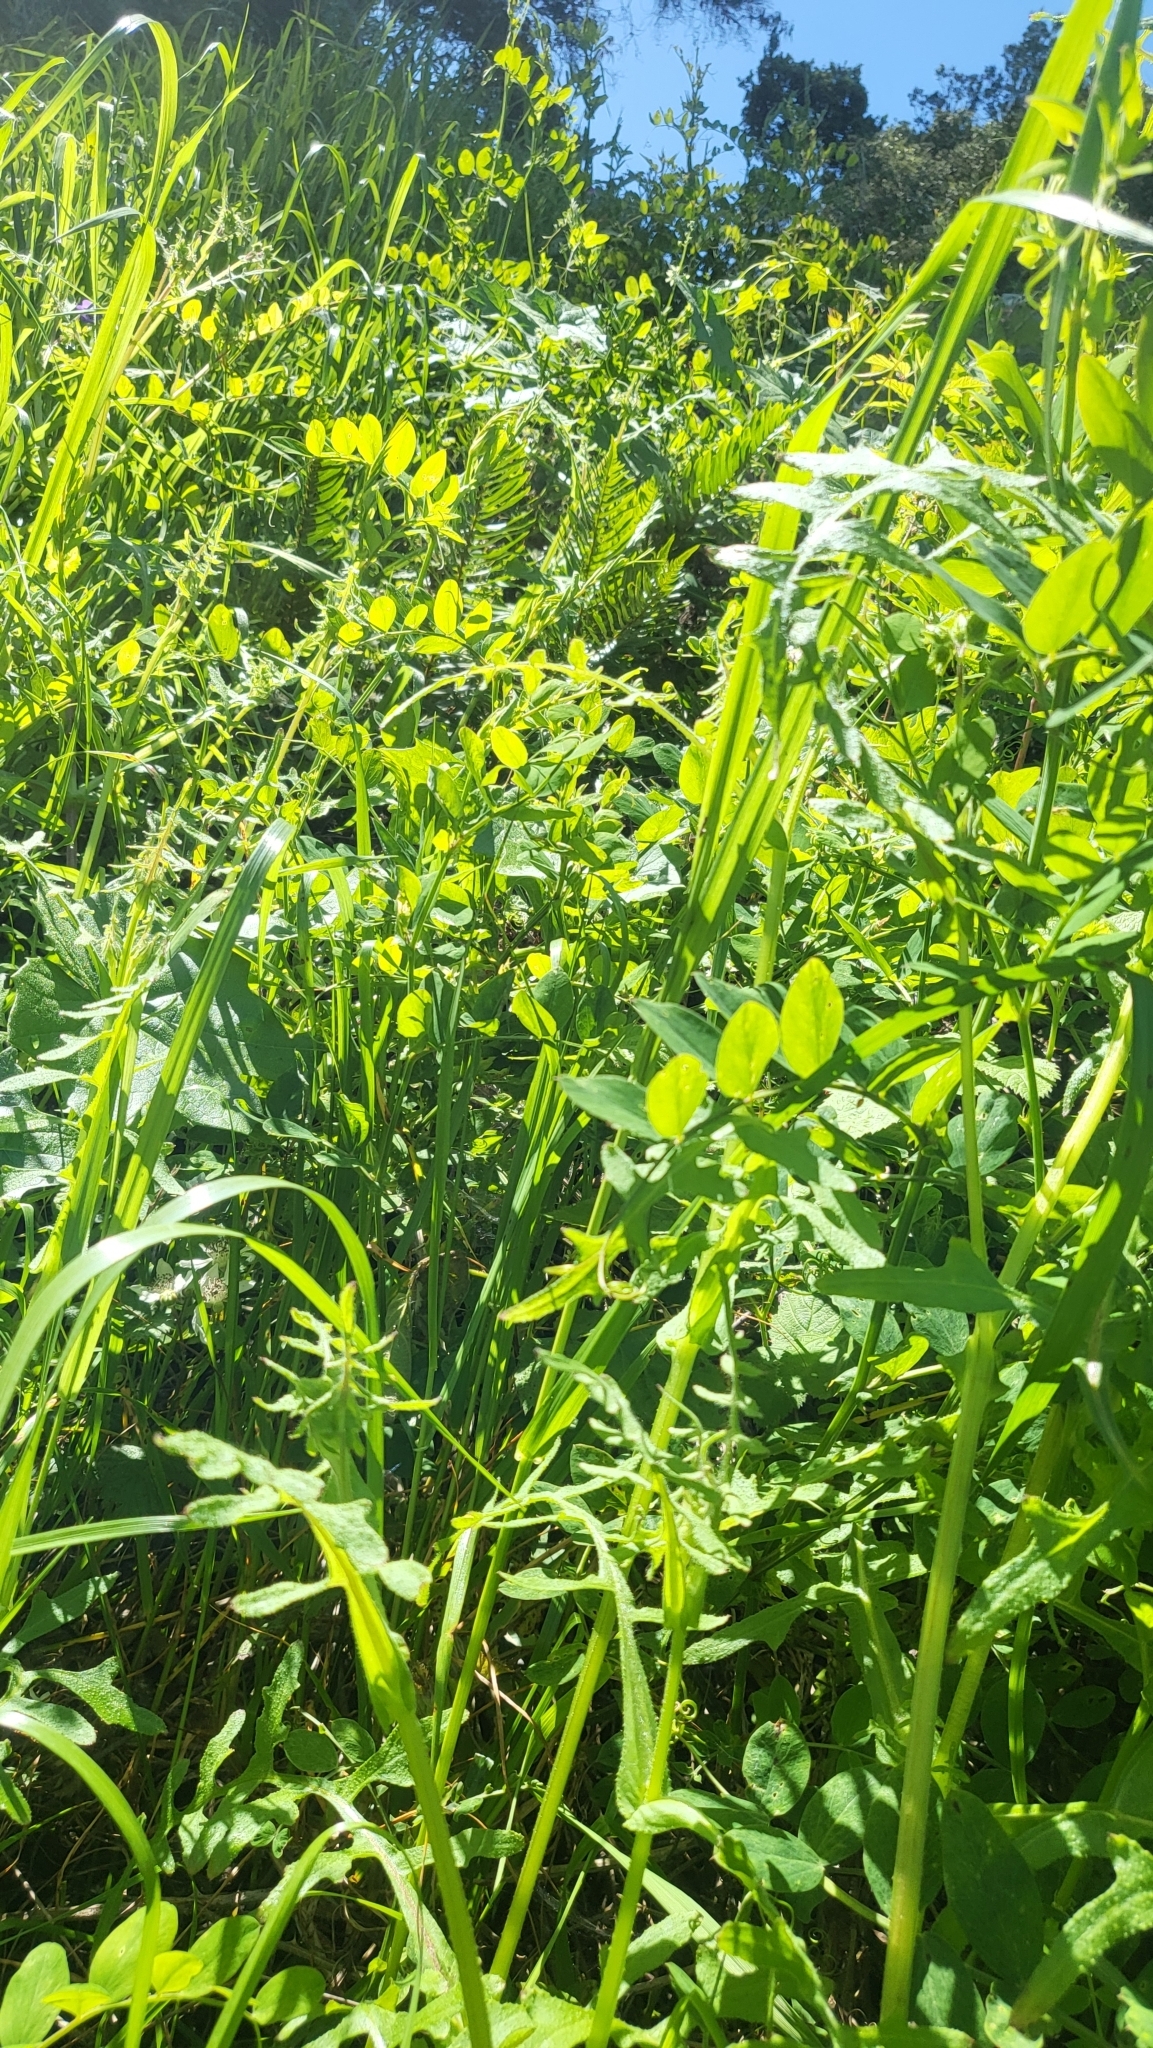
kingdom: Plantae
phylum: Tracheophyta
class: Magnoliopsida
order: Boraginales
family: Hydrophyllaceae
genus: Pholistoma
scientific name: Pholistoma auritum
